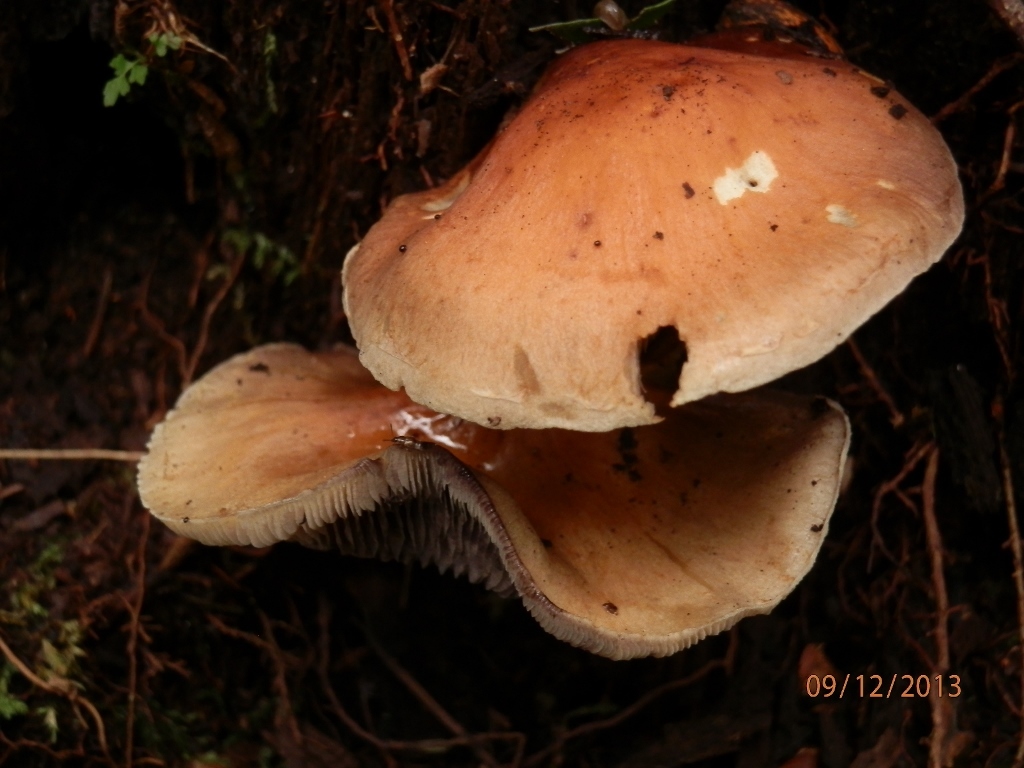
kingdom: Fungi
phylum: Basidiomycota
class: Agaricomycetes
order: Agaricales
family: Strophariaceae
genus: Hypholoma
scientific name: Hypholoma capnoides
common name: Conifer tuft
